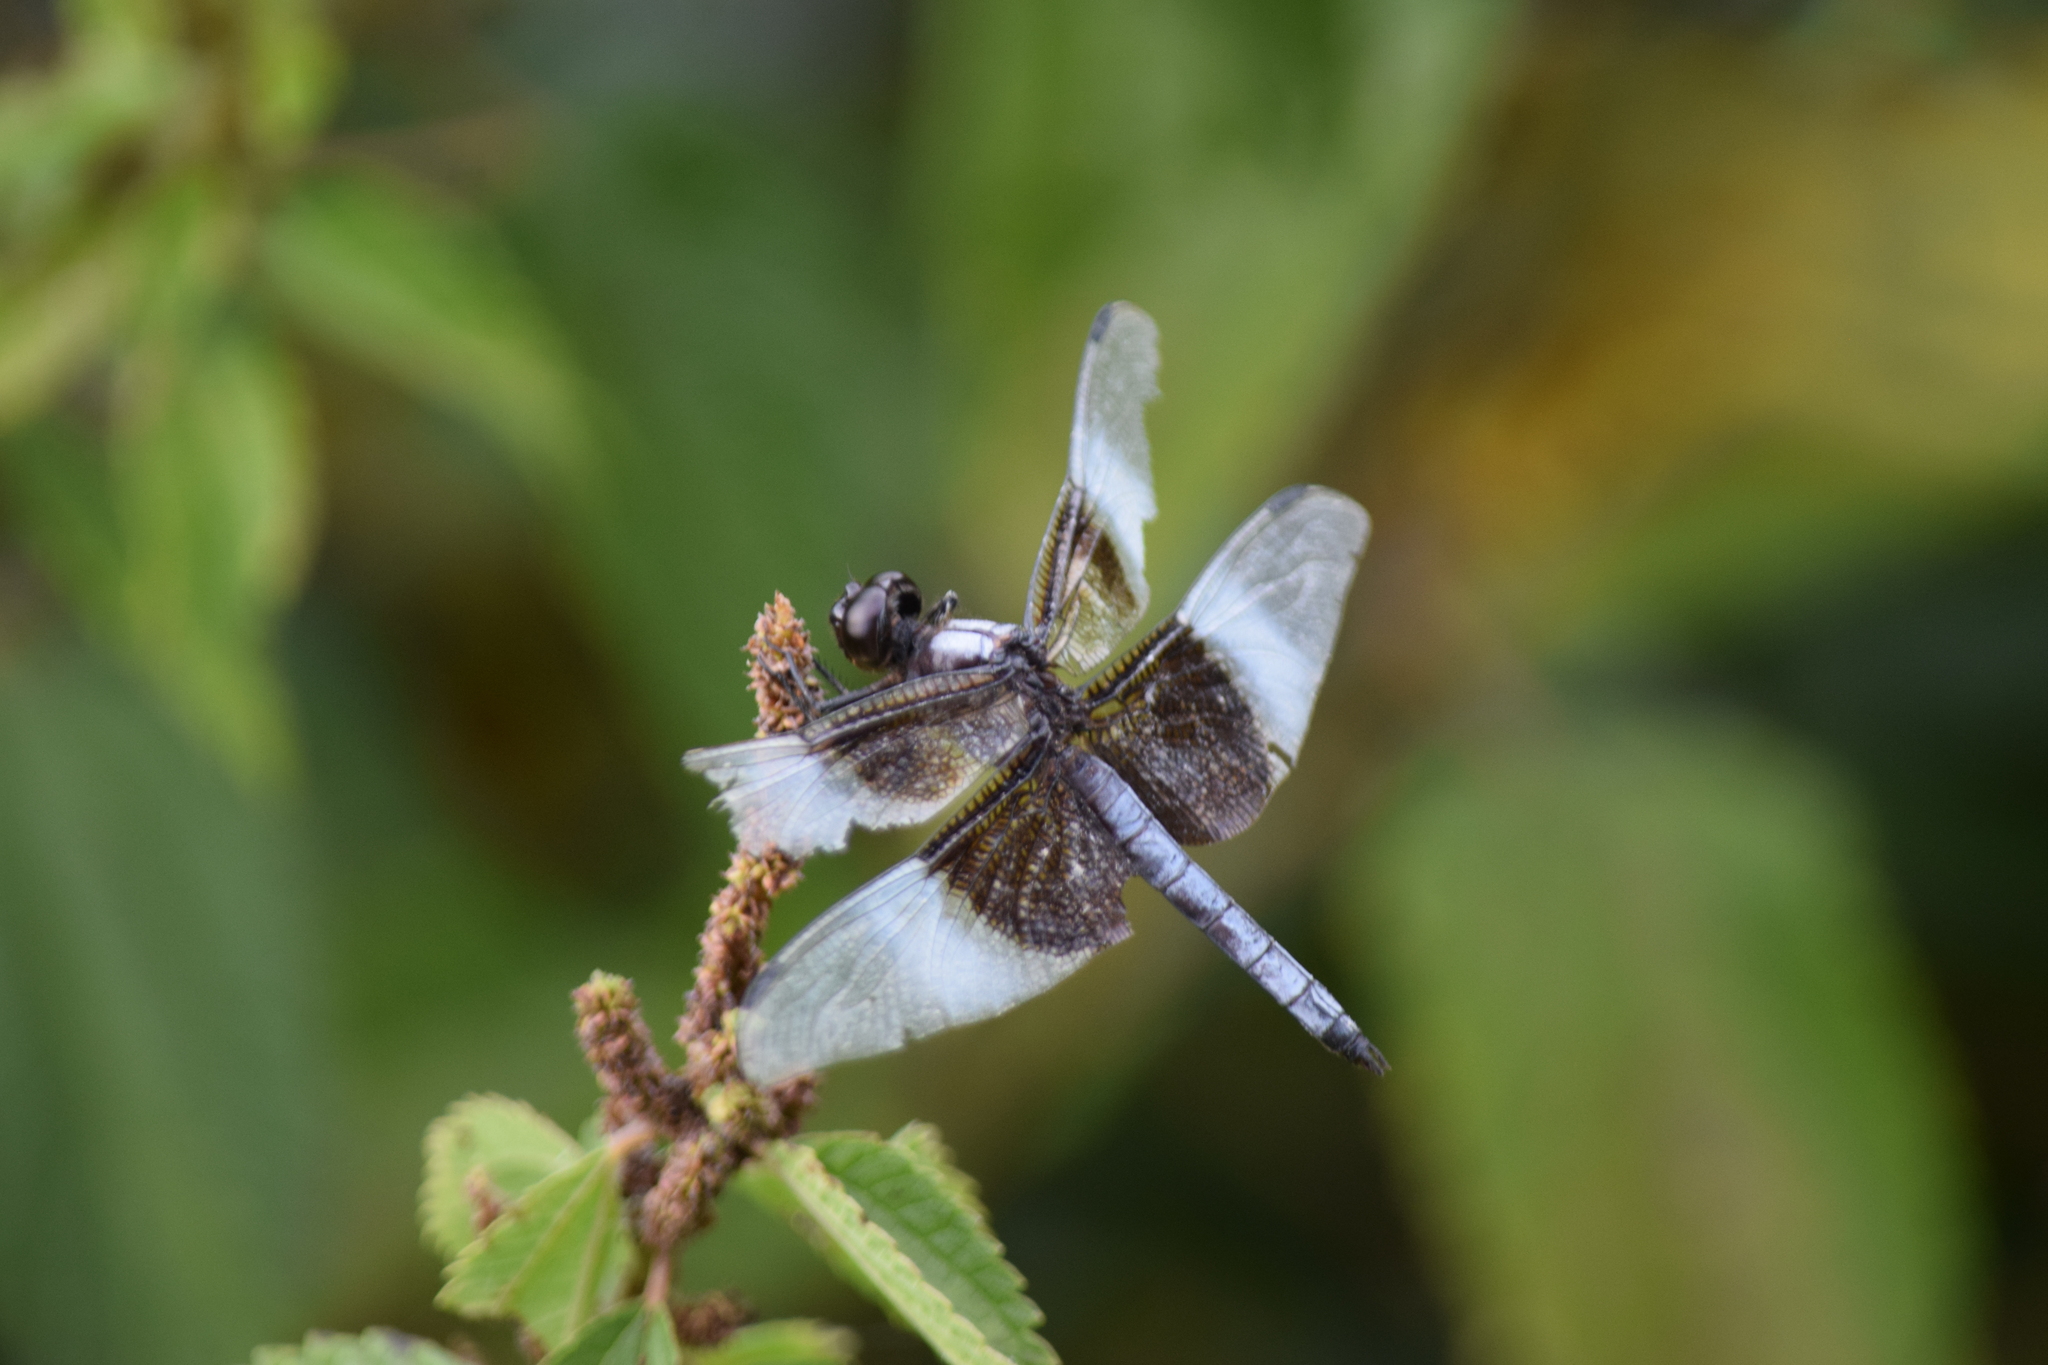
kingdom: Animalia
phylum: Arthropoda
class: Insecta
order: Odonata
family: Libellulidae
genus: Libellula
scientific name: Libellula luctuosa
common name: Widow skimmer
